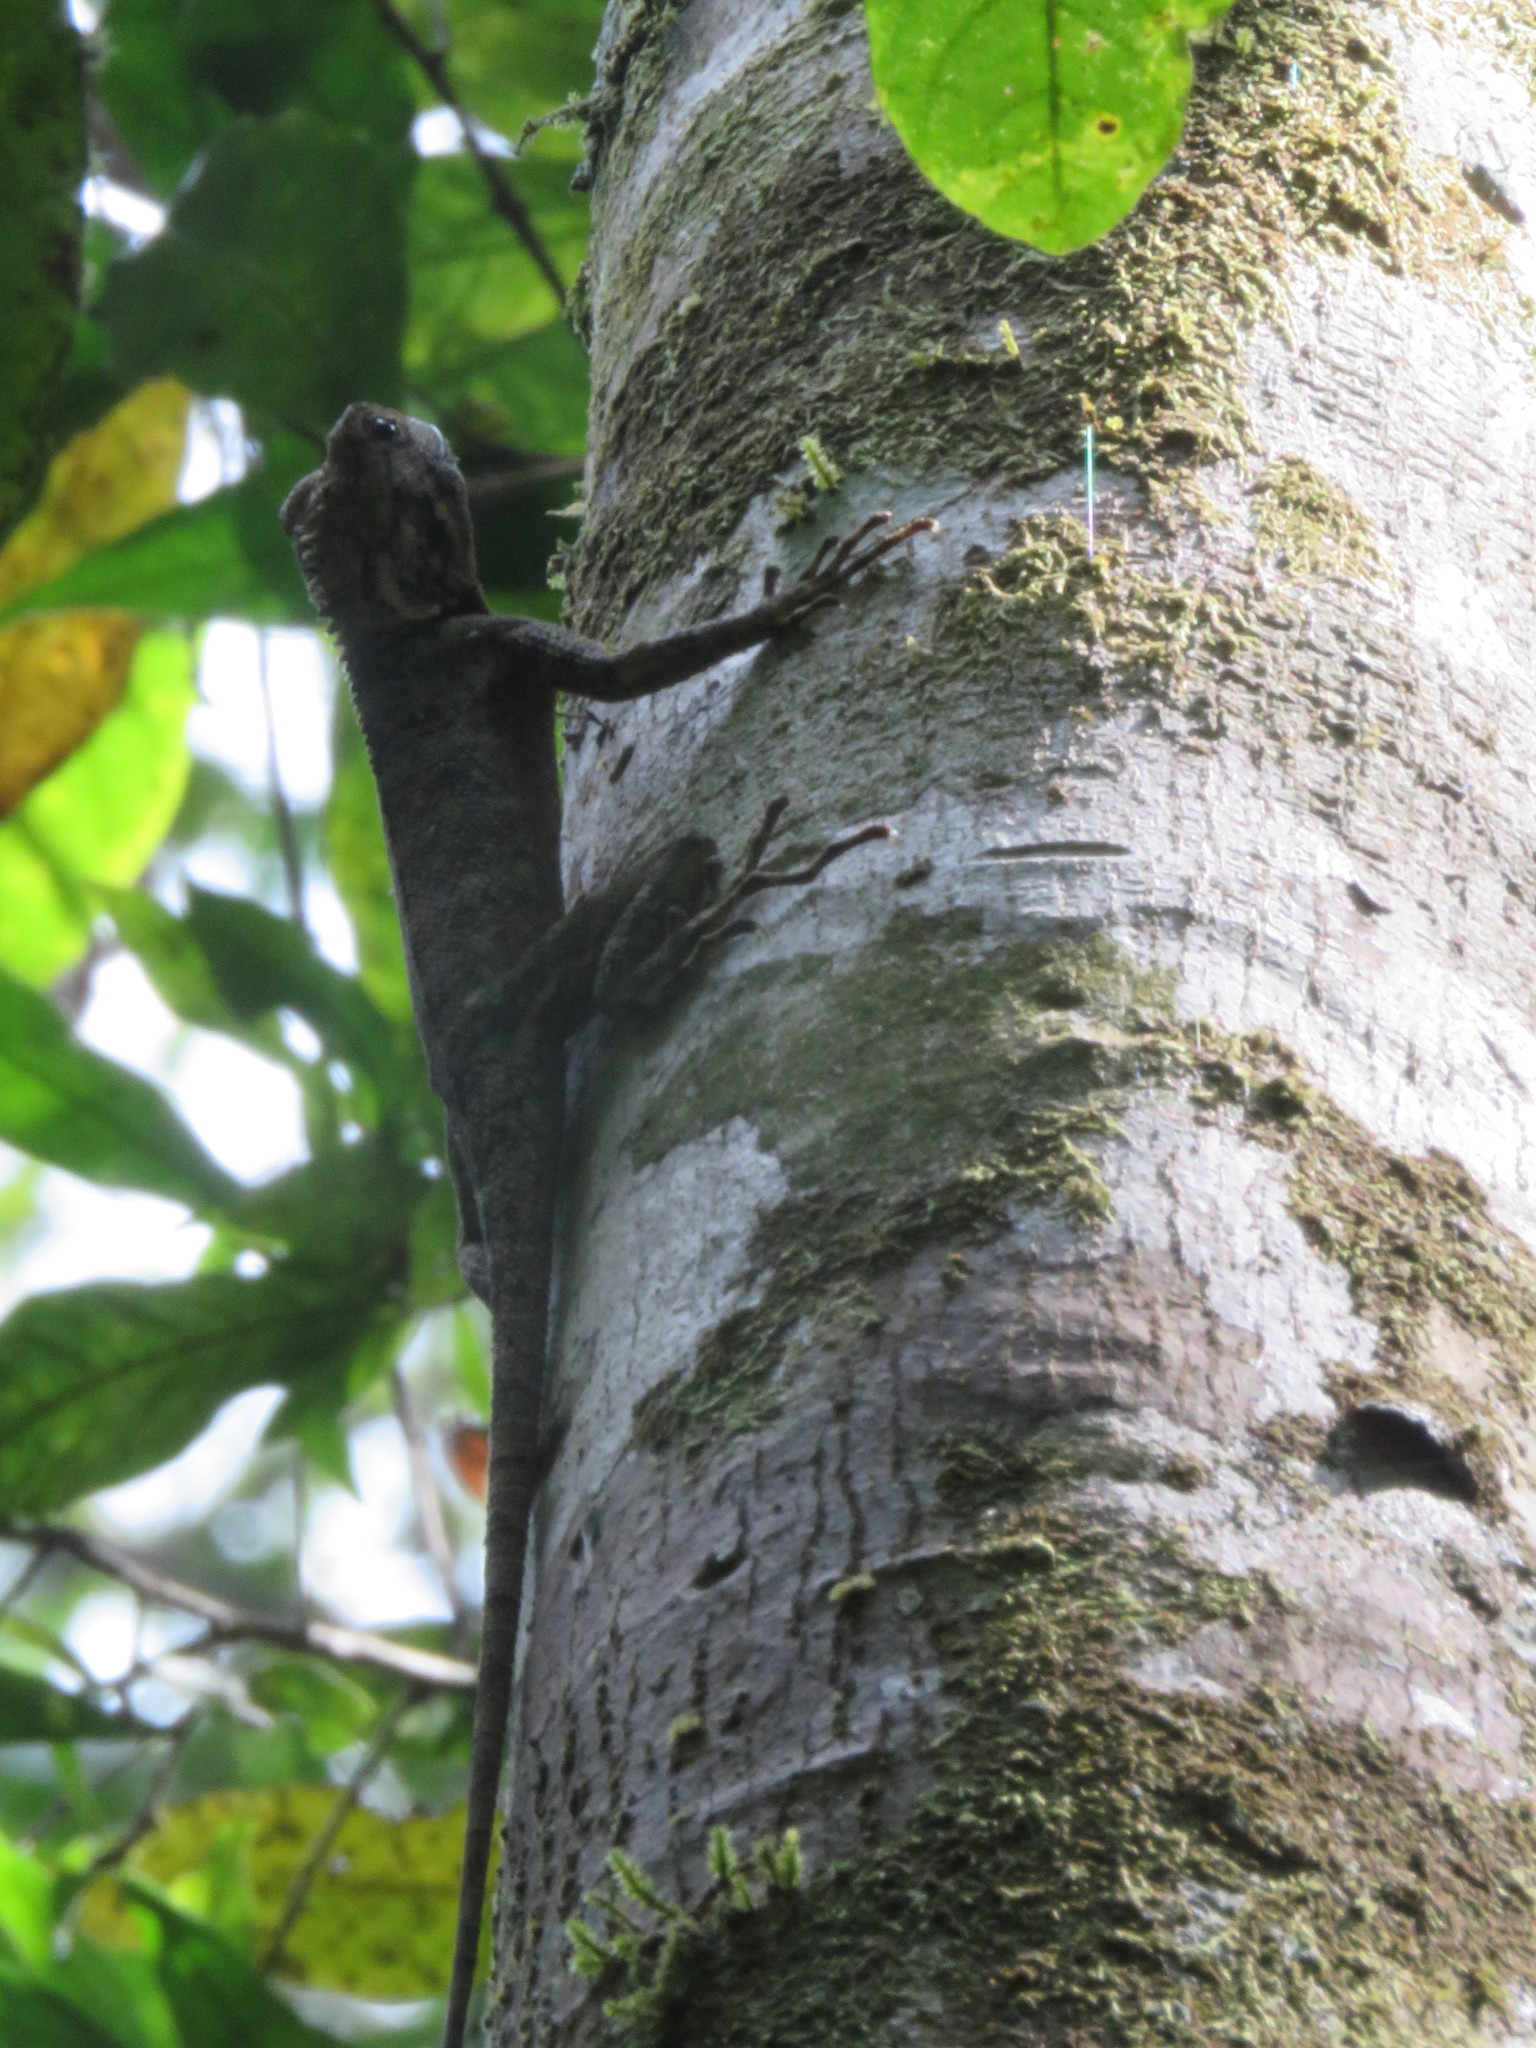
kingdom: Animalia
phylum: Chordata
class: Squamata
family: Tropiduridae
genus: Plica
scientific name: Plica umbra
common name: Harlequin racerunner
